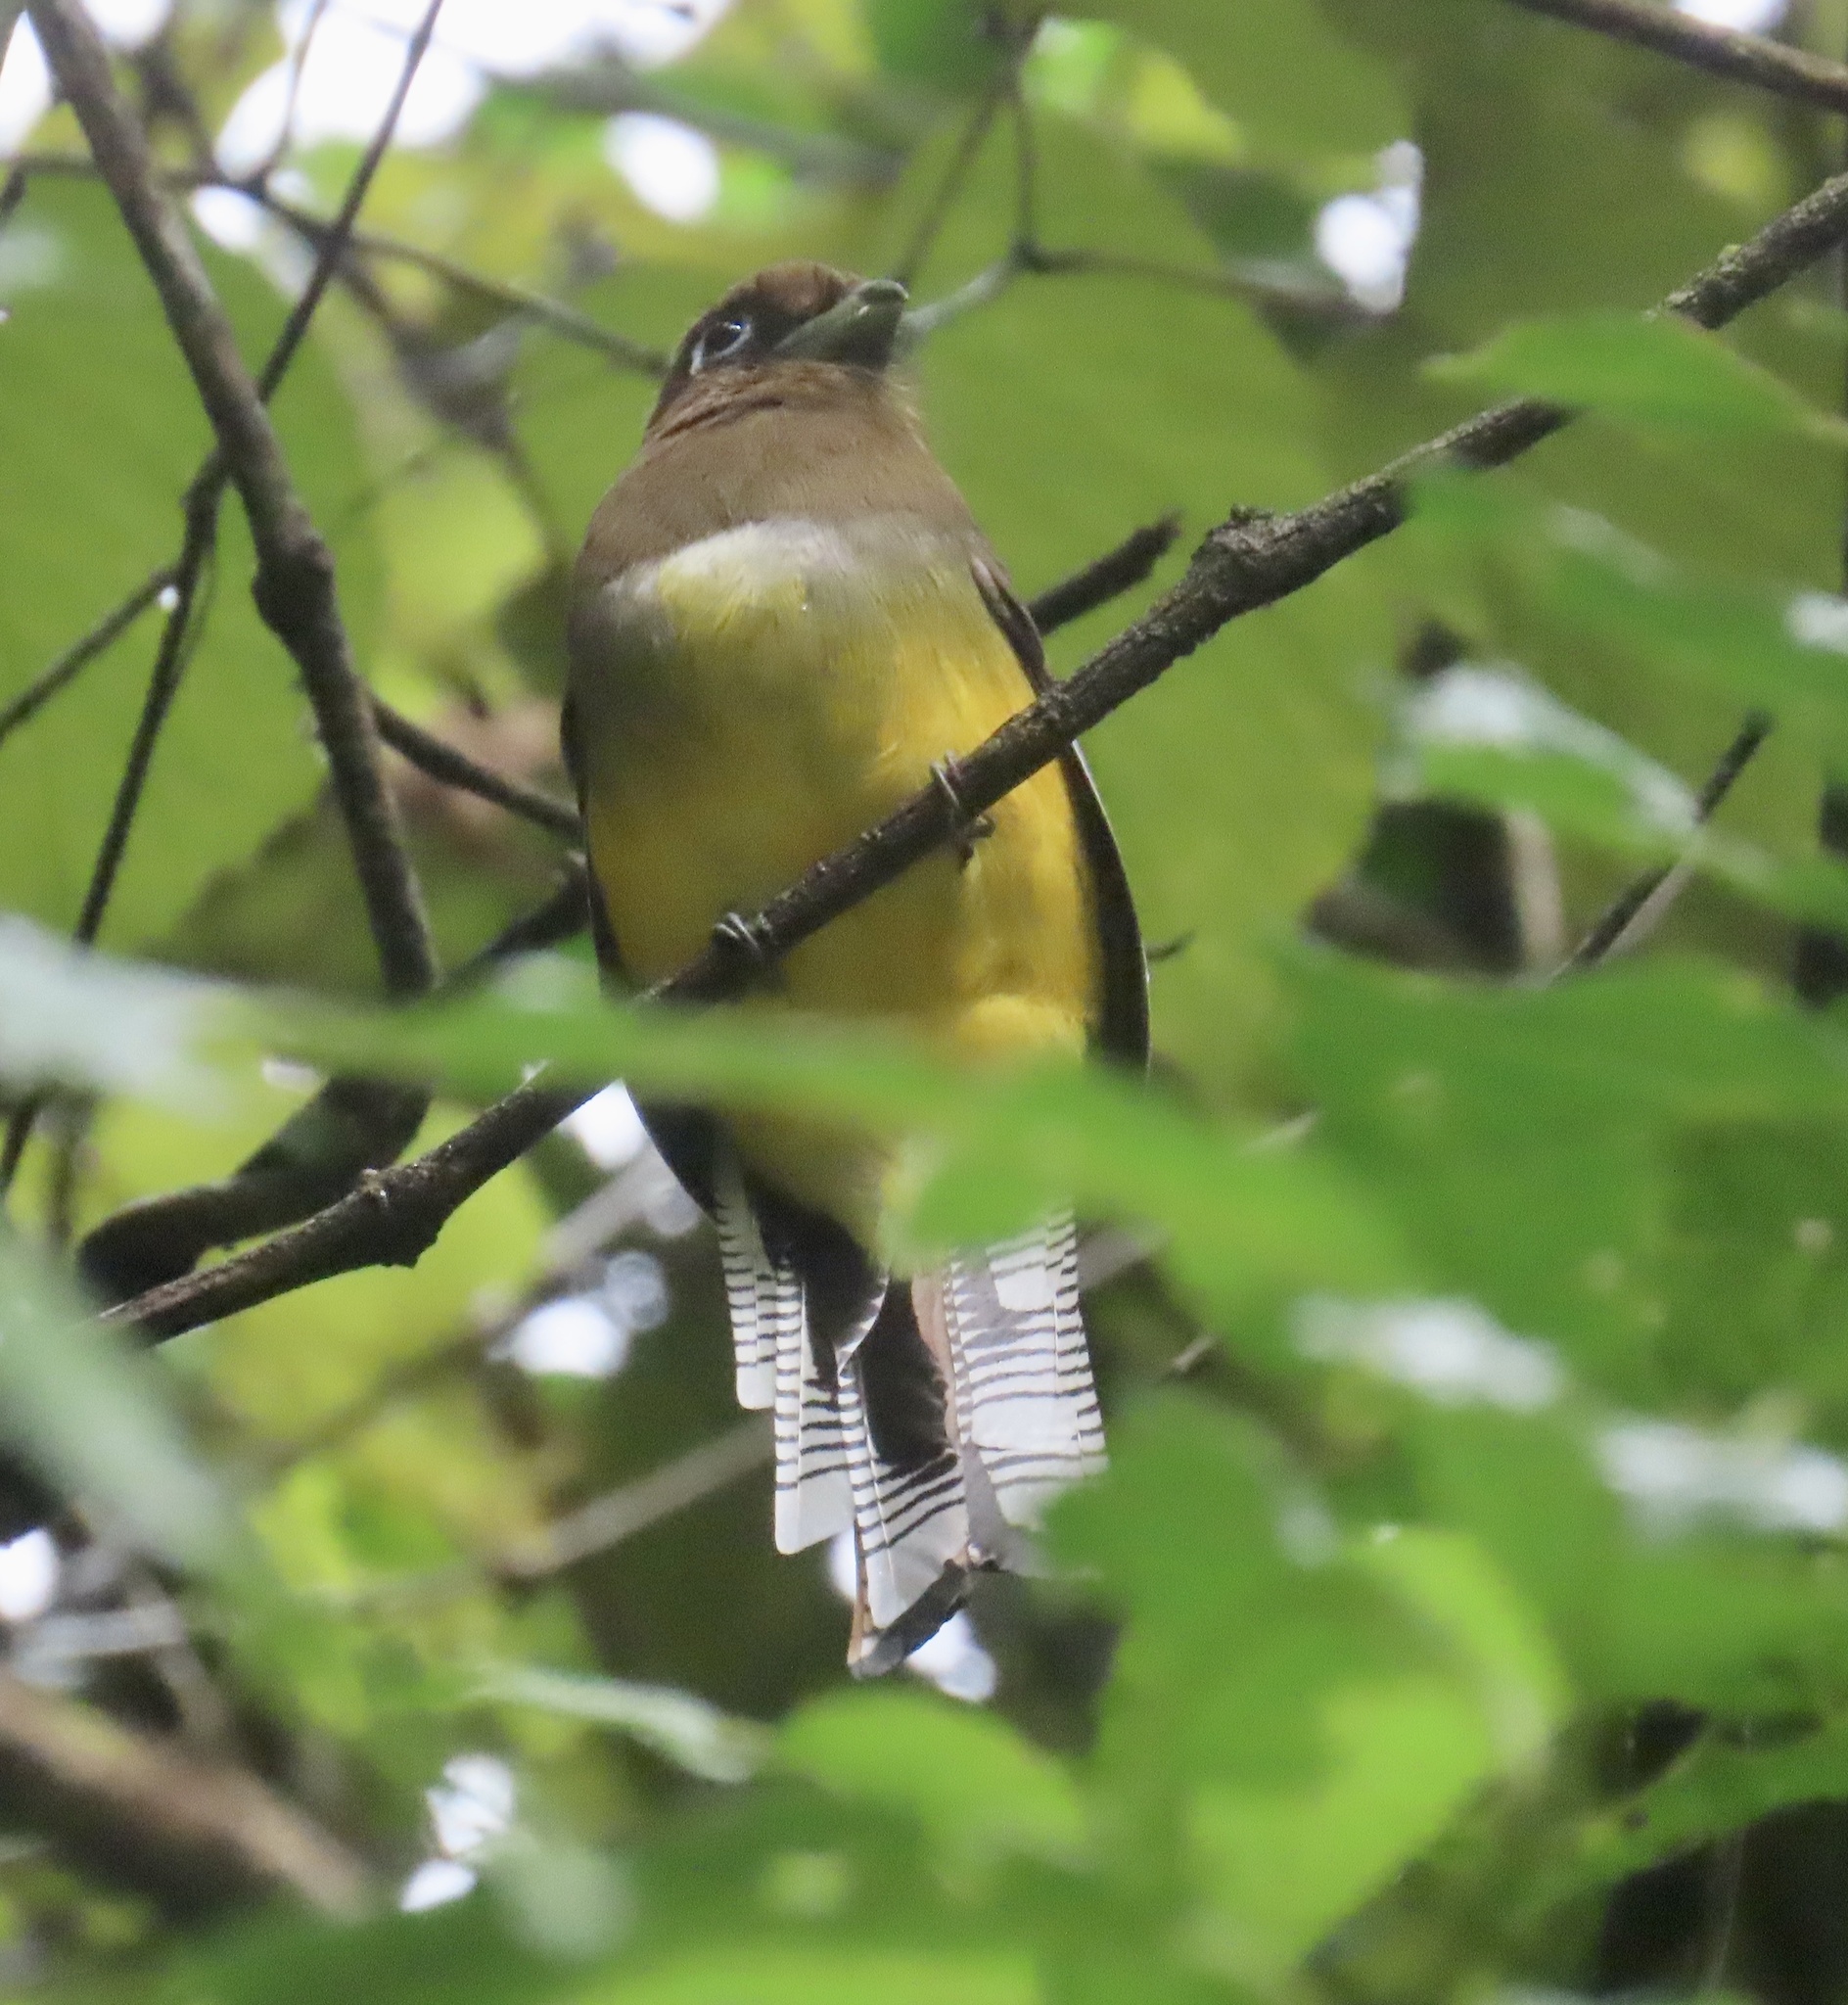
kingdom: Animalia
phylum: Chordata
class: Aves
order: Trogoniformes
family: Trogonidae
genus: Trogon
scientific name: Trogon rufus
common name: Black-throated trogon
